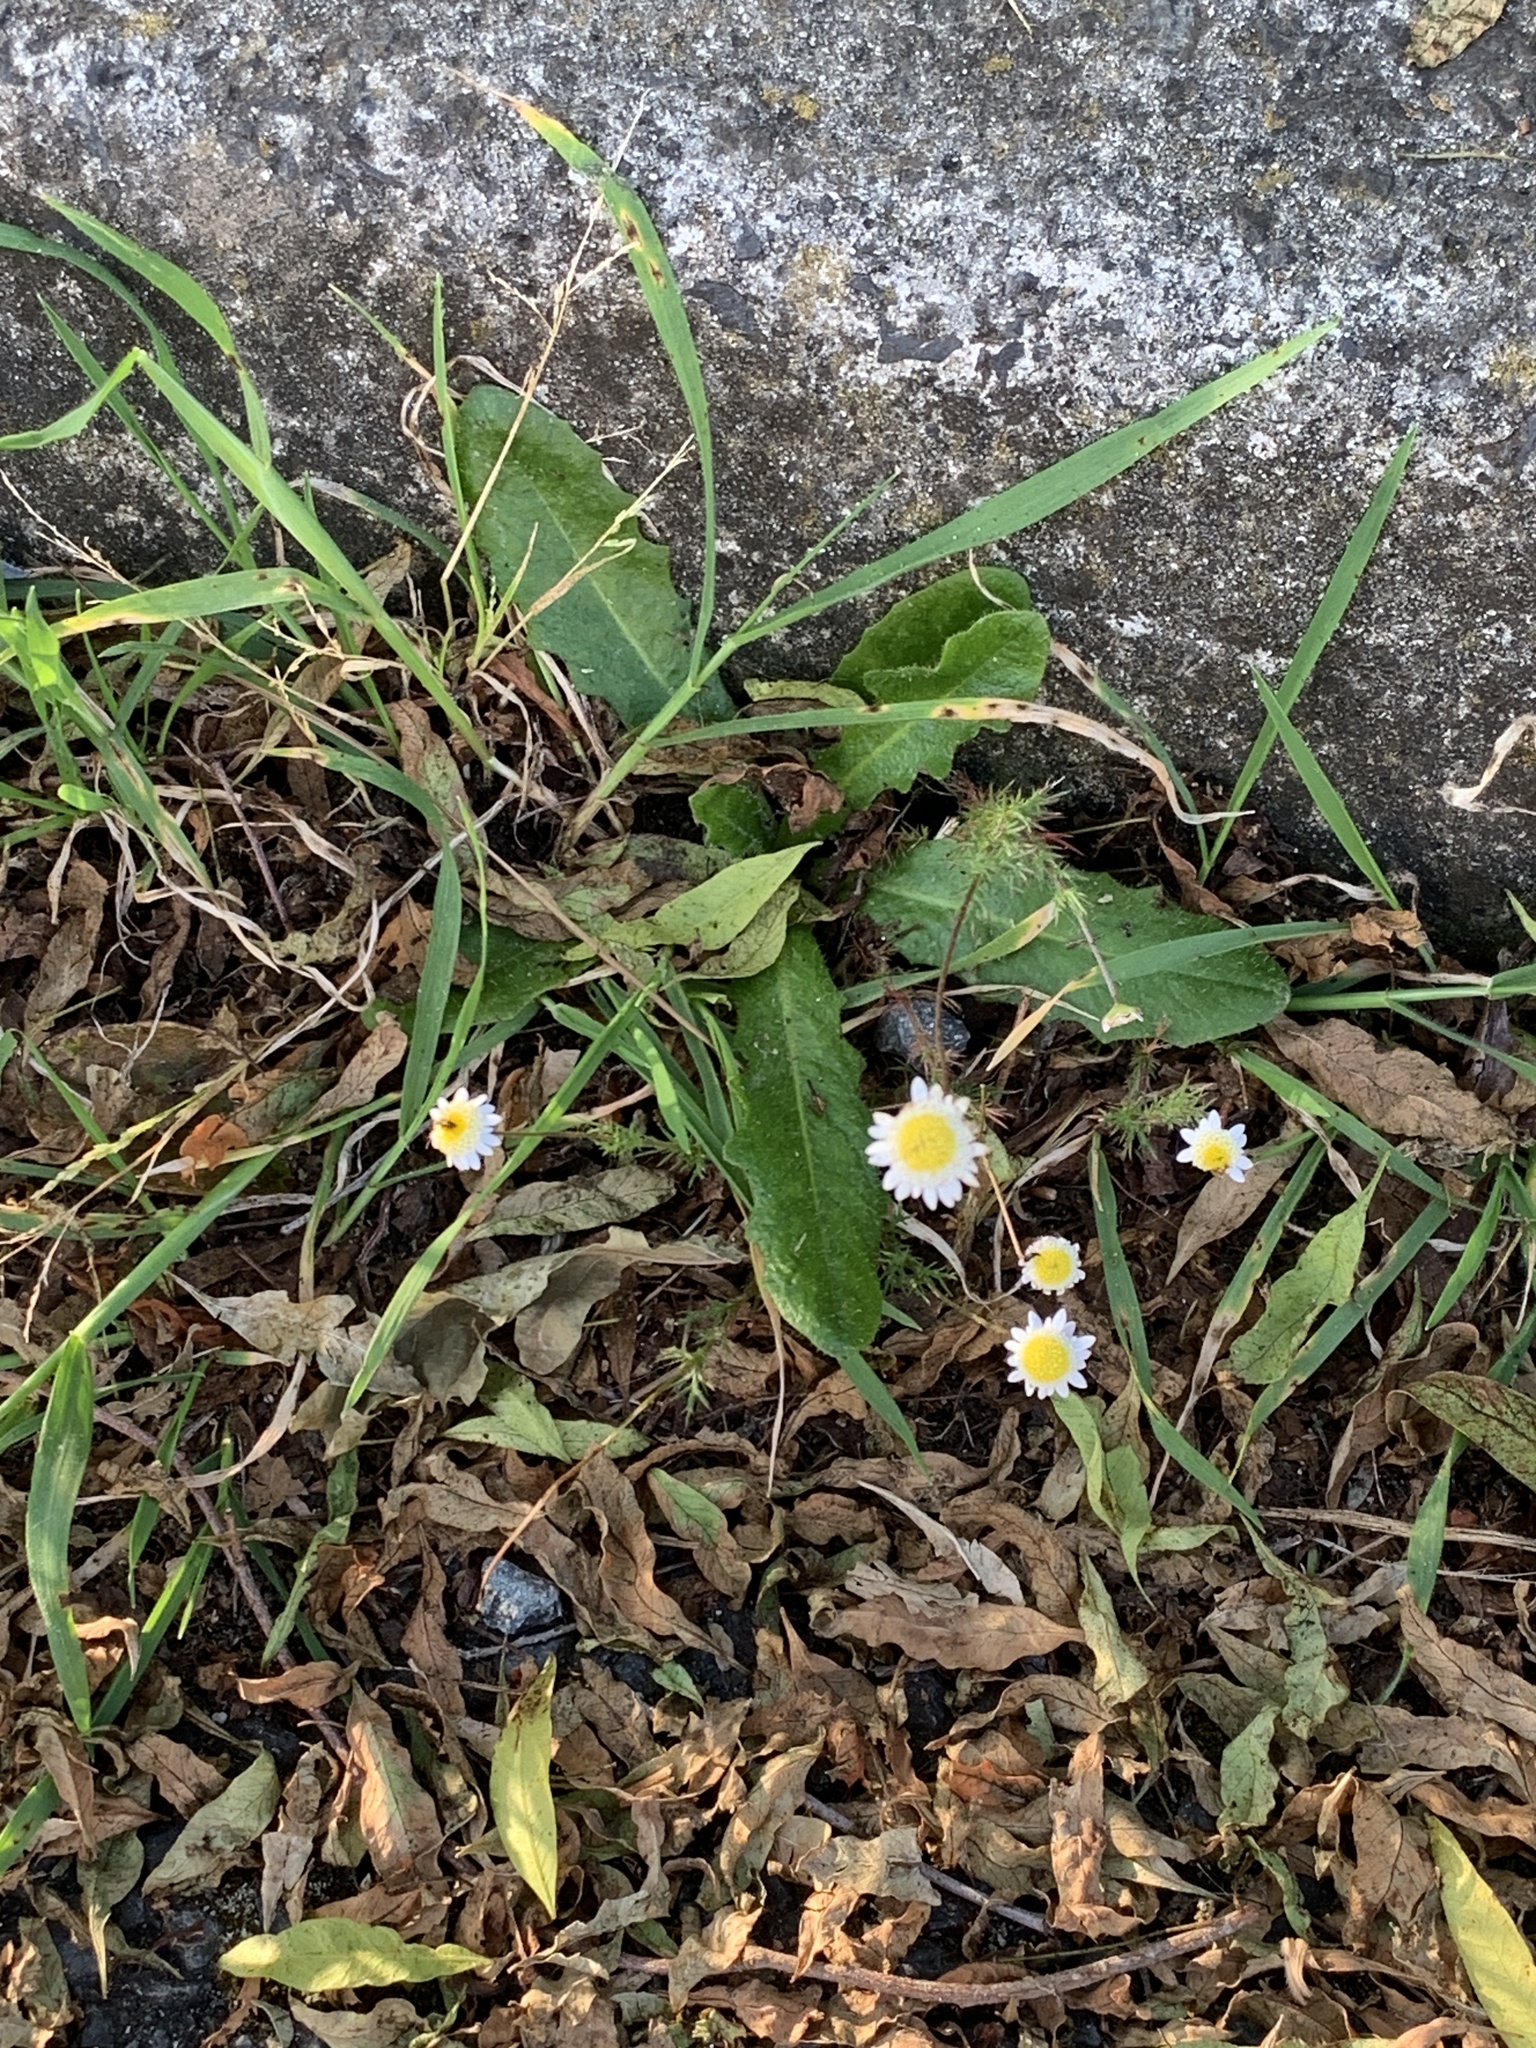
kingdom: Plantae
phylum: Tracheophyta
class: Magnoliopsida
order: Asterales
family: Asteraceae
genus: Cotula
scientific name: Cotula turbinata
